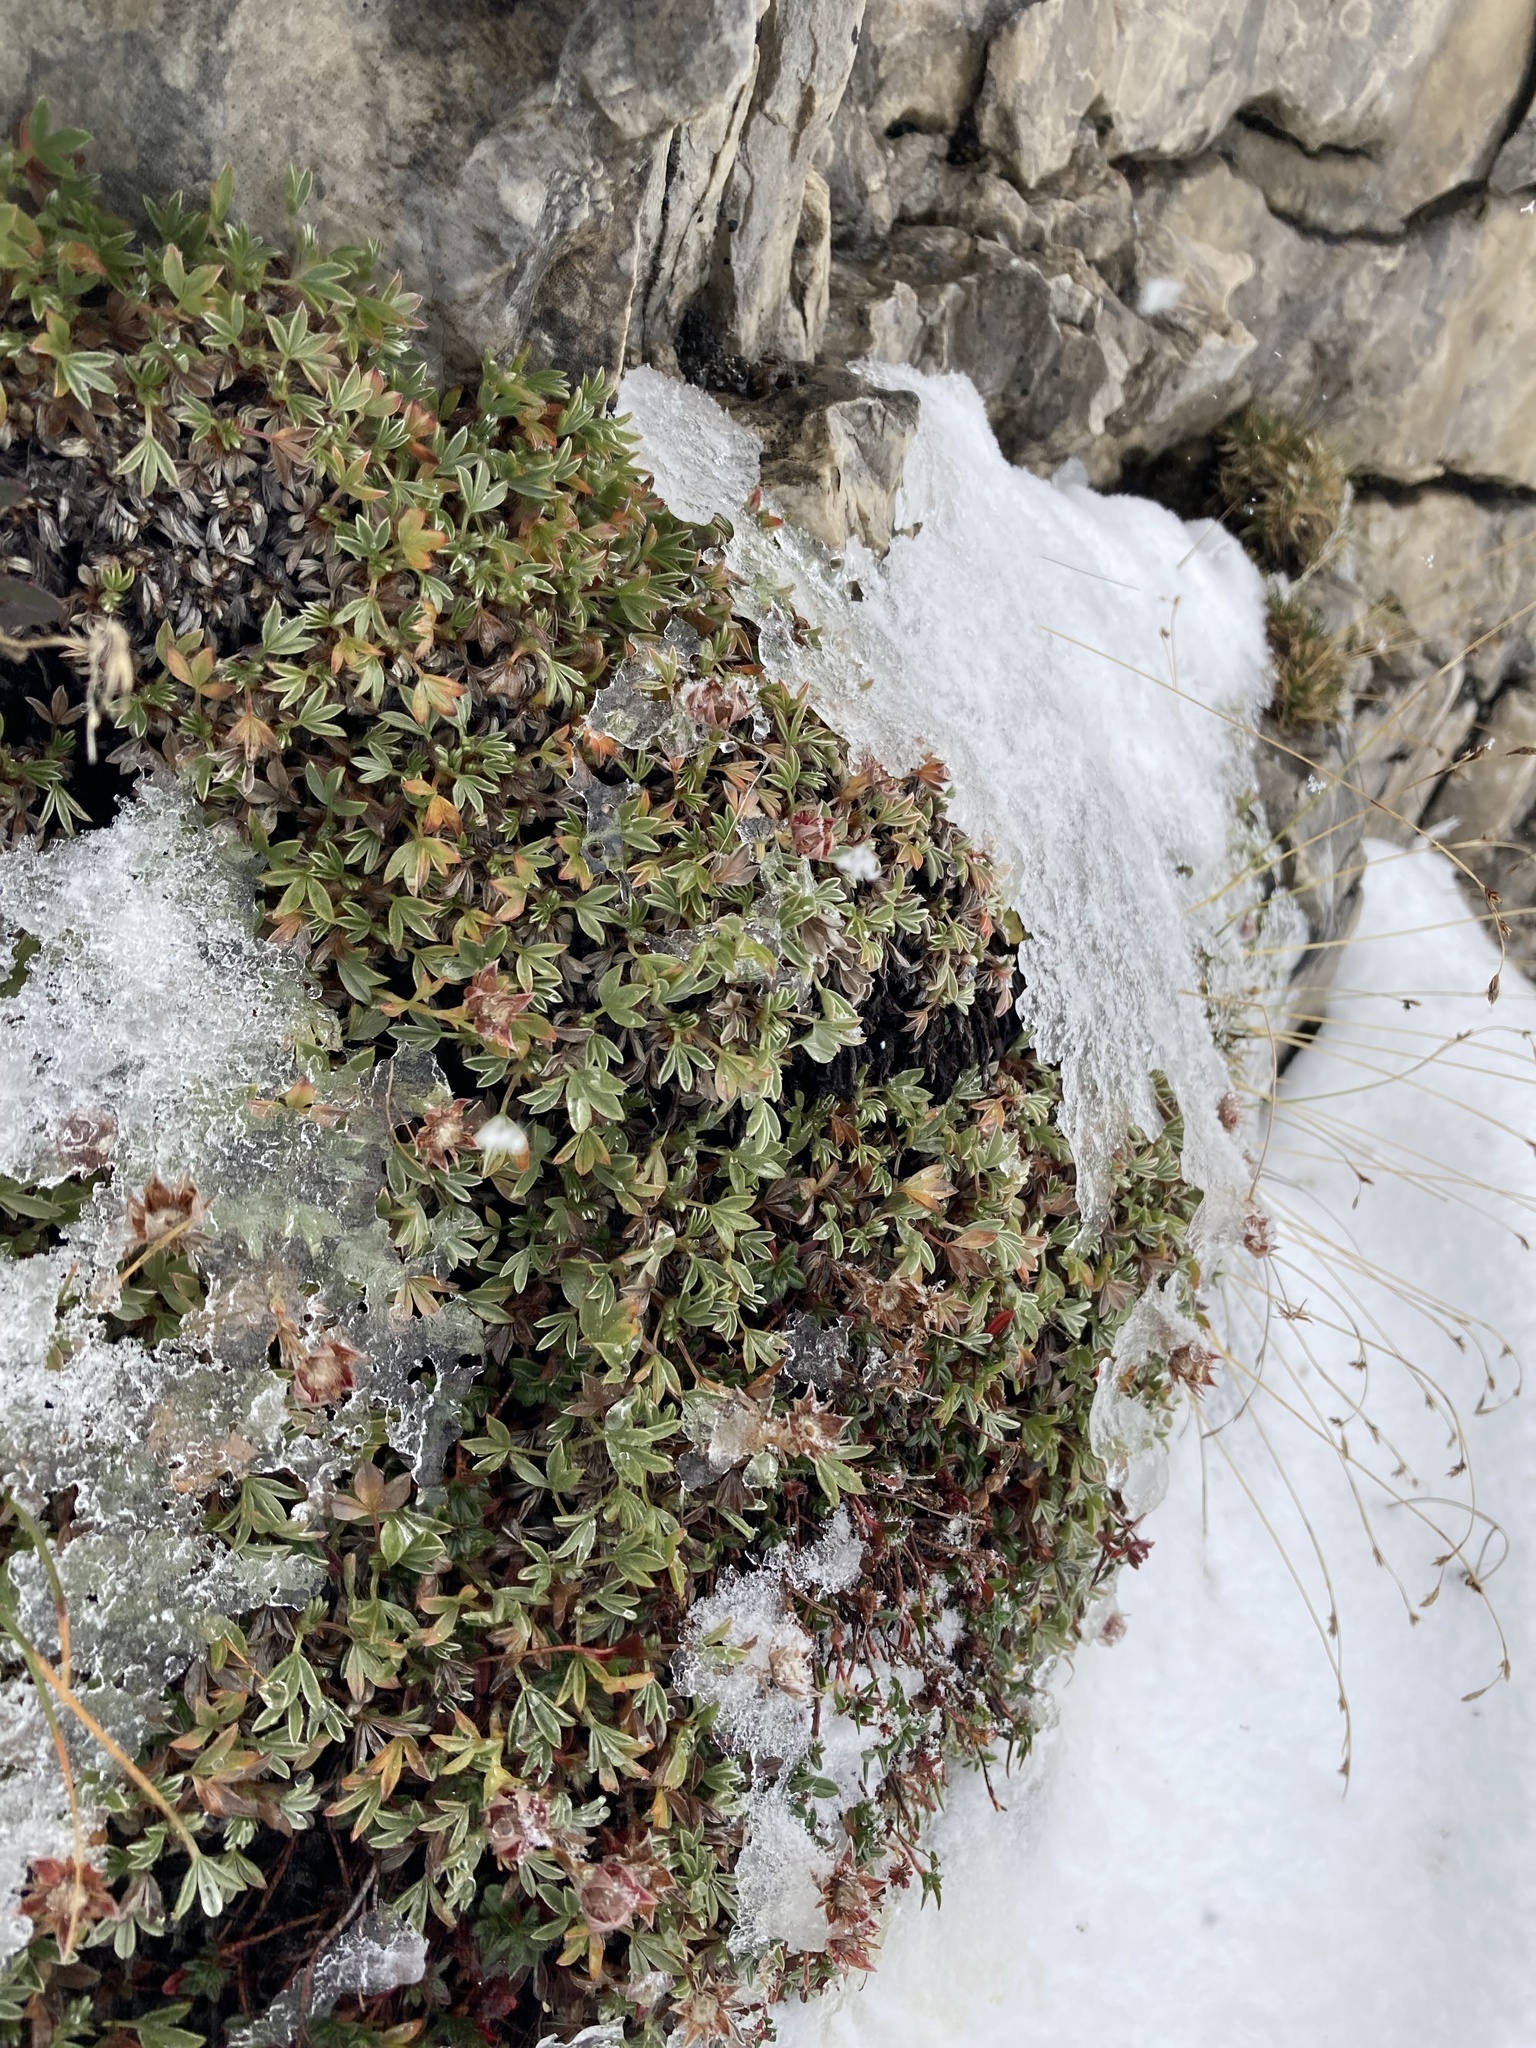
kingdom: Plantae
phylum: Tracheophyta
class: Magnoliopsida
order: Rosales
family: Rosaceae
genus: Potentilla
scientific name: Potentilla nitida
